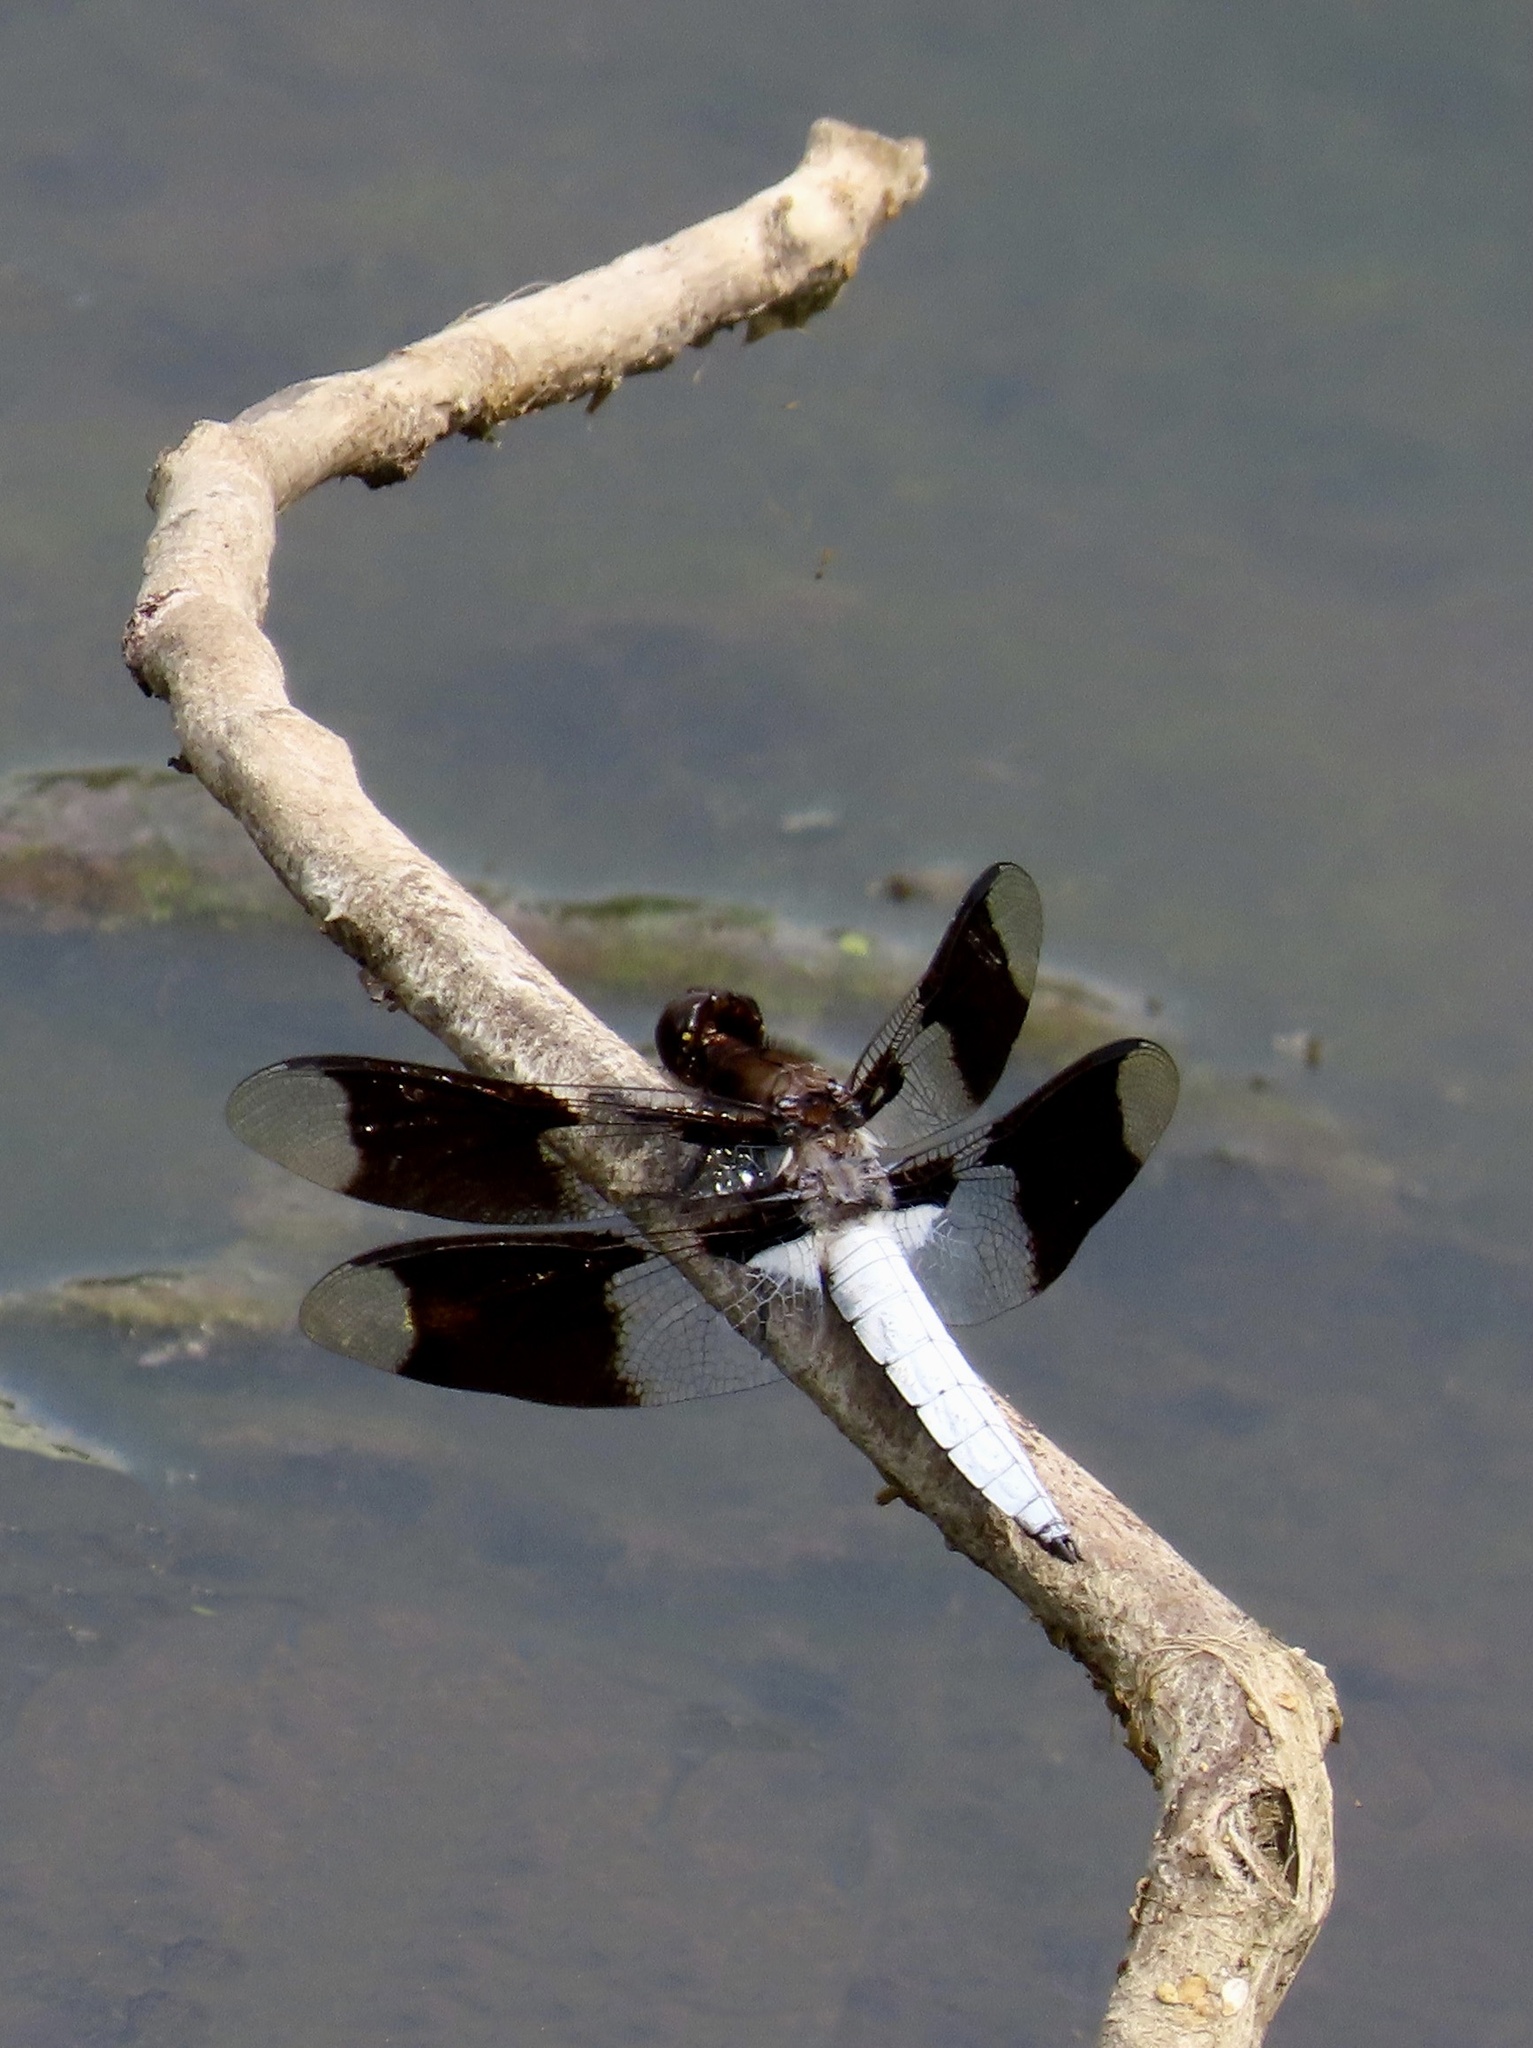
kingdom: Animalia
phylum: Arthropoda
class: Insecta
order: Odonata
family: Libellulidae
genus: Plathemis
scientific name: Plathemis lydia
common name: Common whitetail
